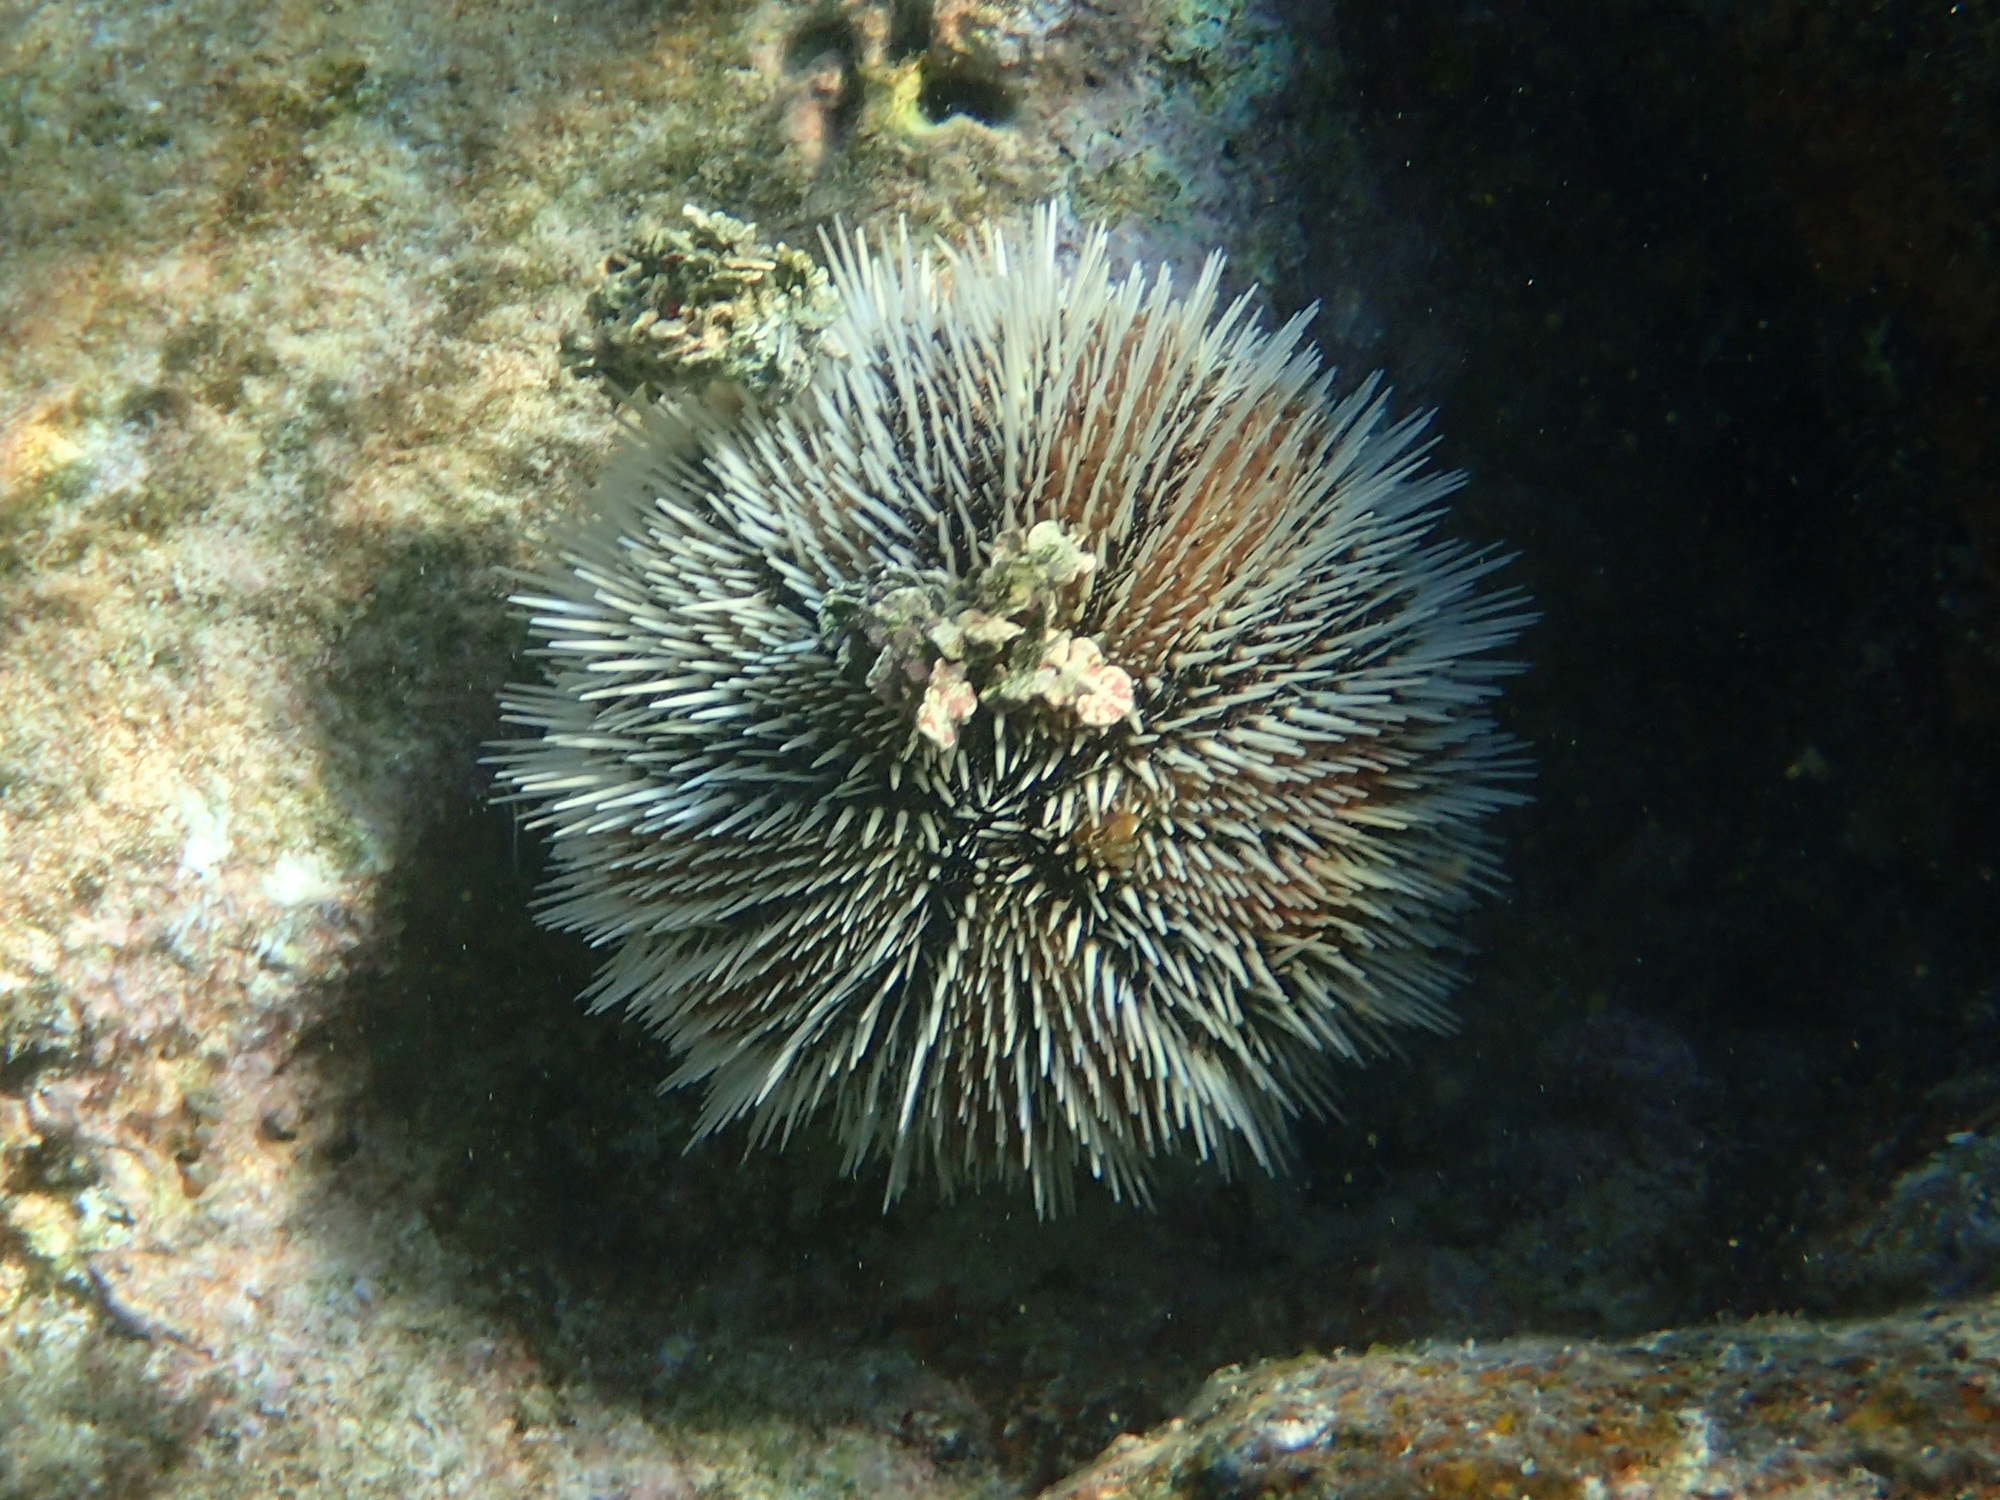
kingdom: Animalia
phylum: Echinodermata
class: Echinoidea
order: Camarodonta
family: Toxopneustidae
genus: Tripneustes
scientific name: Tripneustes ventricosus
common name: West indian sea egg
